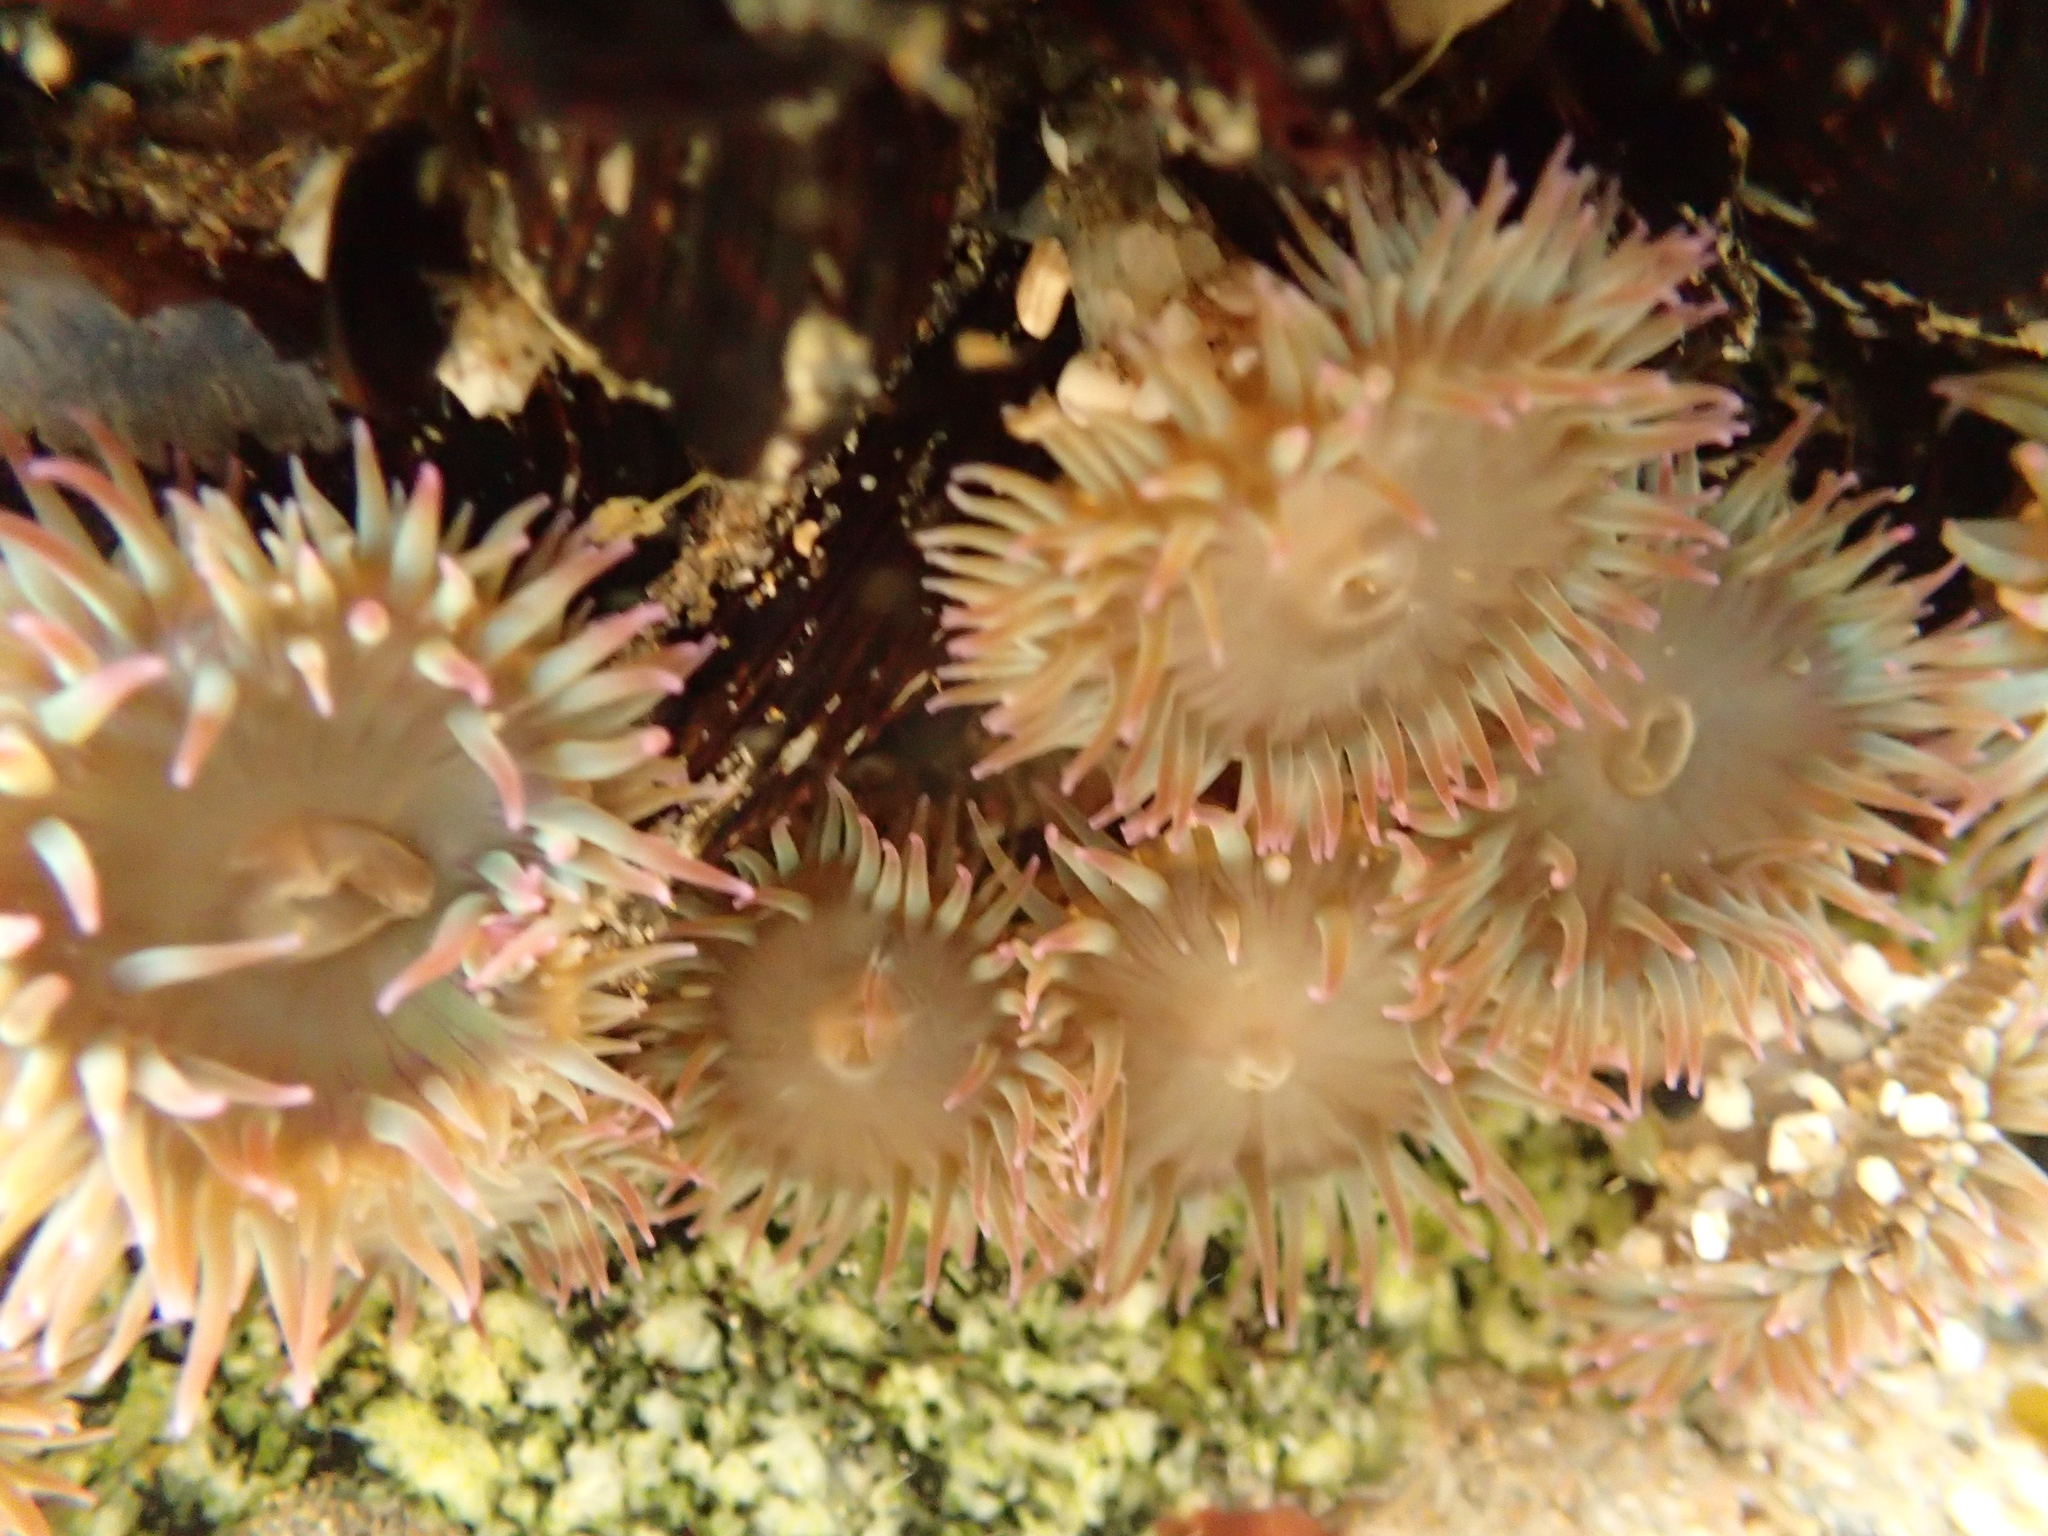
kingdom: Animalia
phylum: Cnidaria
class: Anthozoa
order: Actiniaria
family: Actiniidae
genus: Anthopleura
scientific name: Anthopleura elegantissima
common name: Clonal anemone
